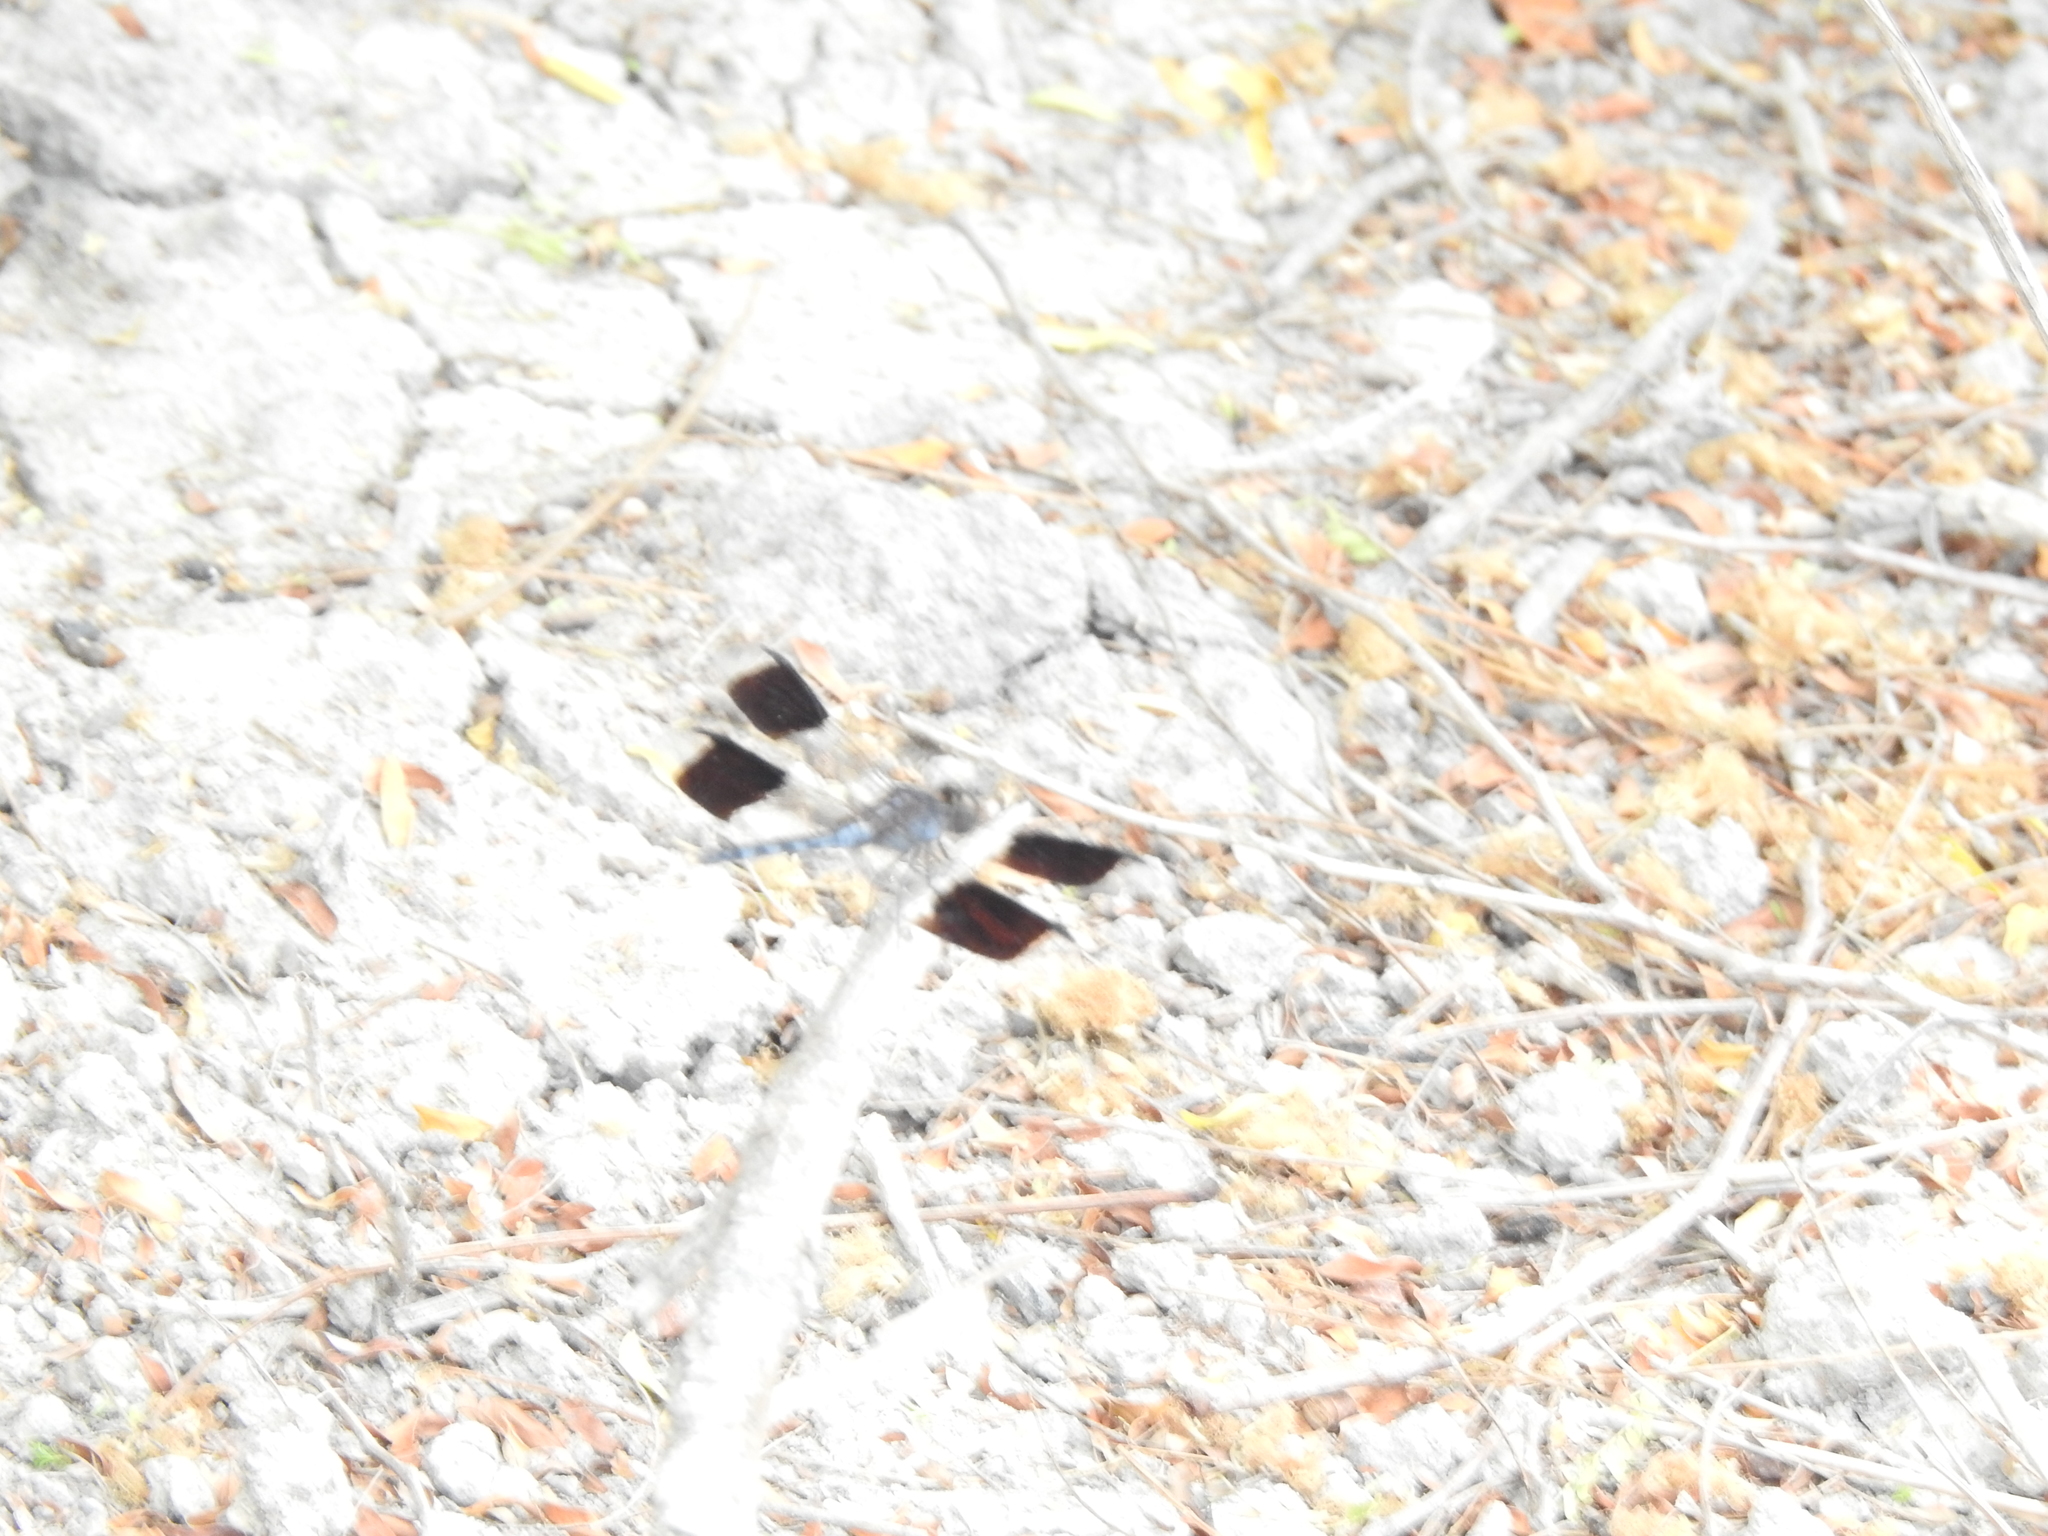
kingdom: Animalia
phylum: Arthropoda
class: Insecta
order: Odonata
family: Libellulidae
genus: Erythrodiplax
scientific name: Erythrodiplax umbrata
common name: Band-winged dragonlet
